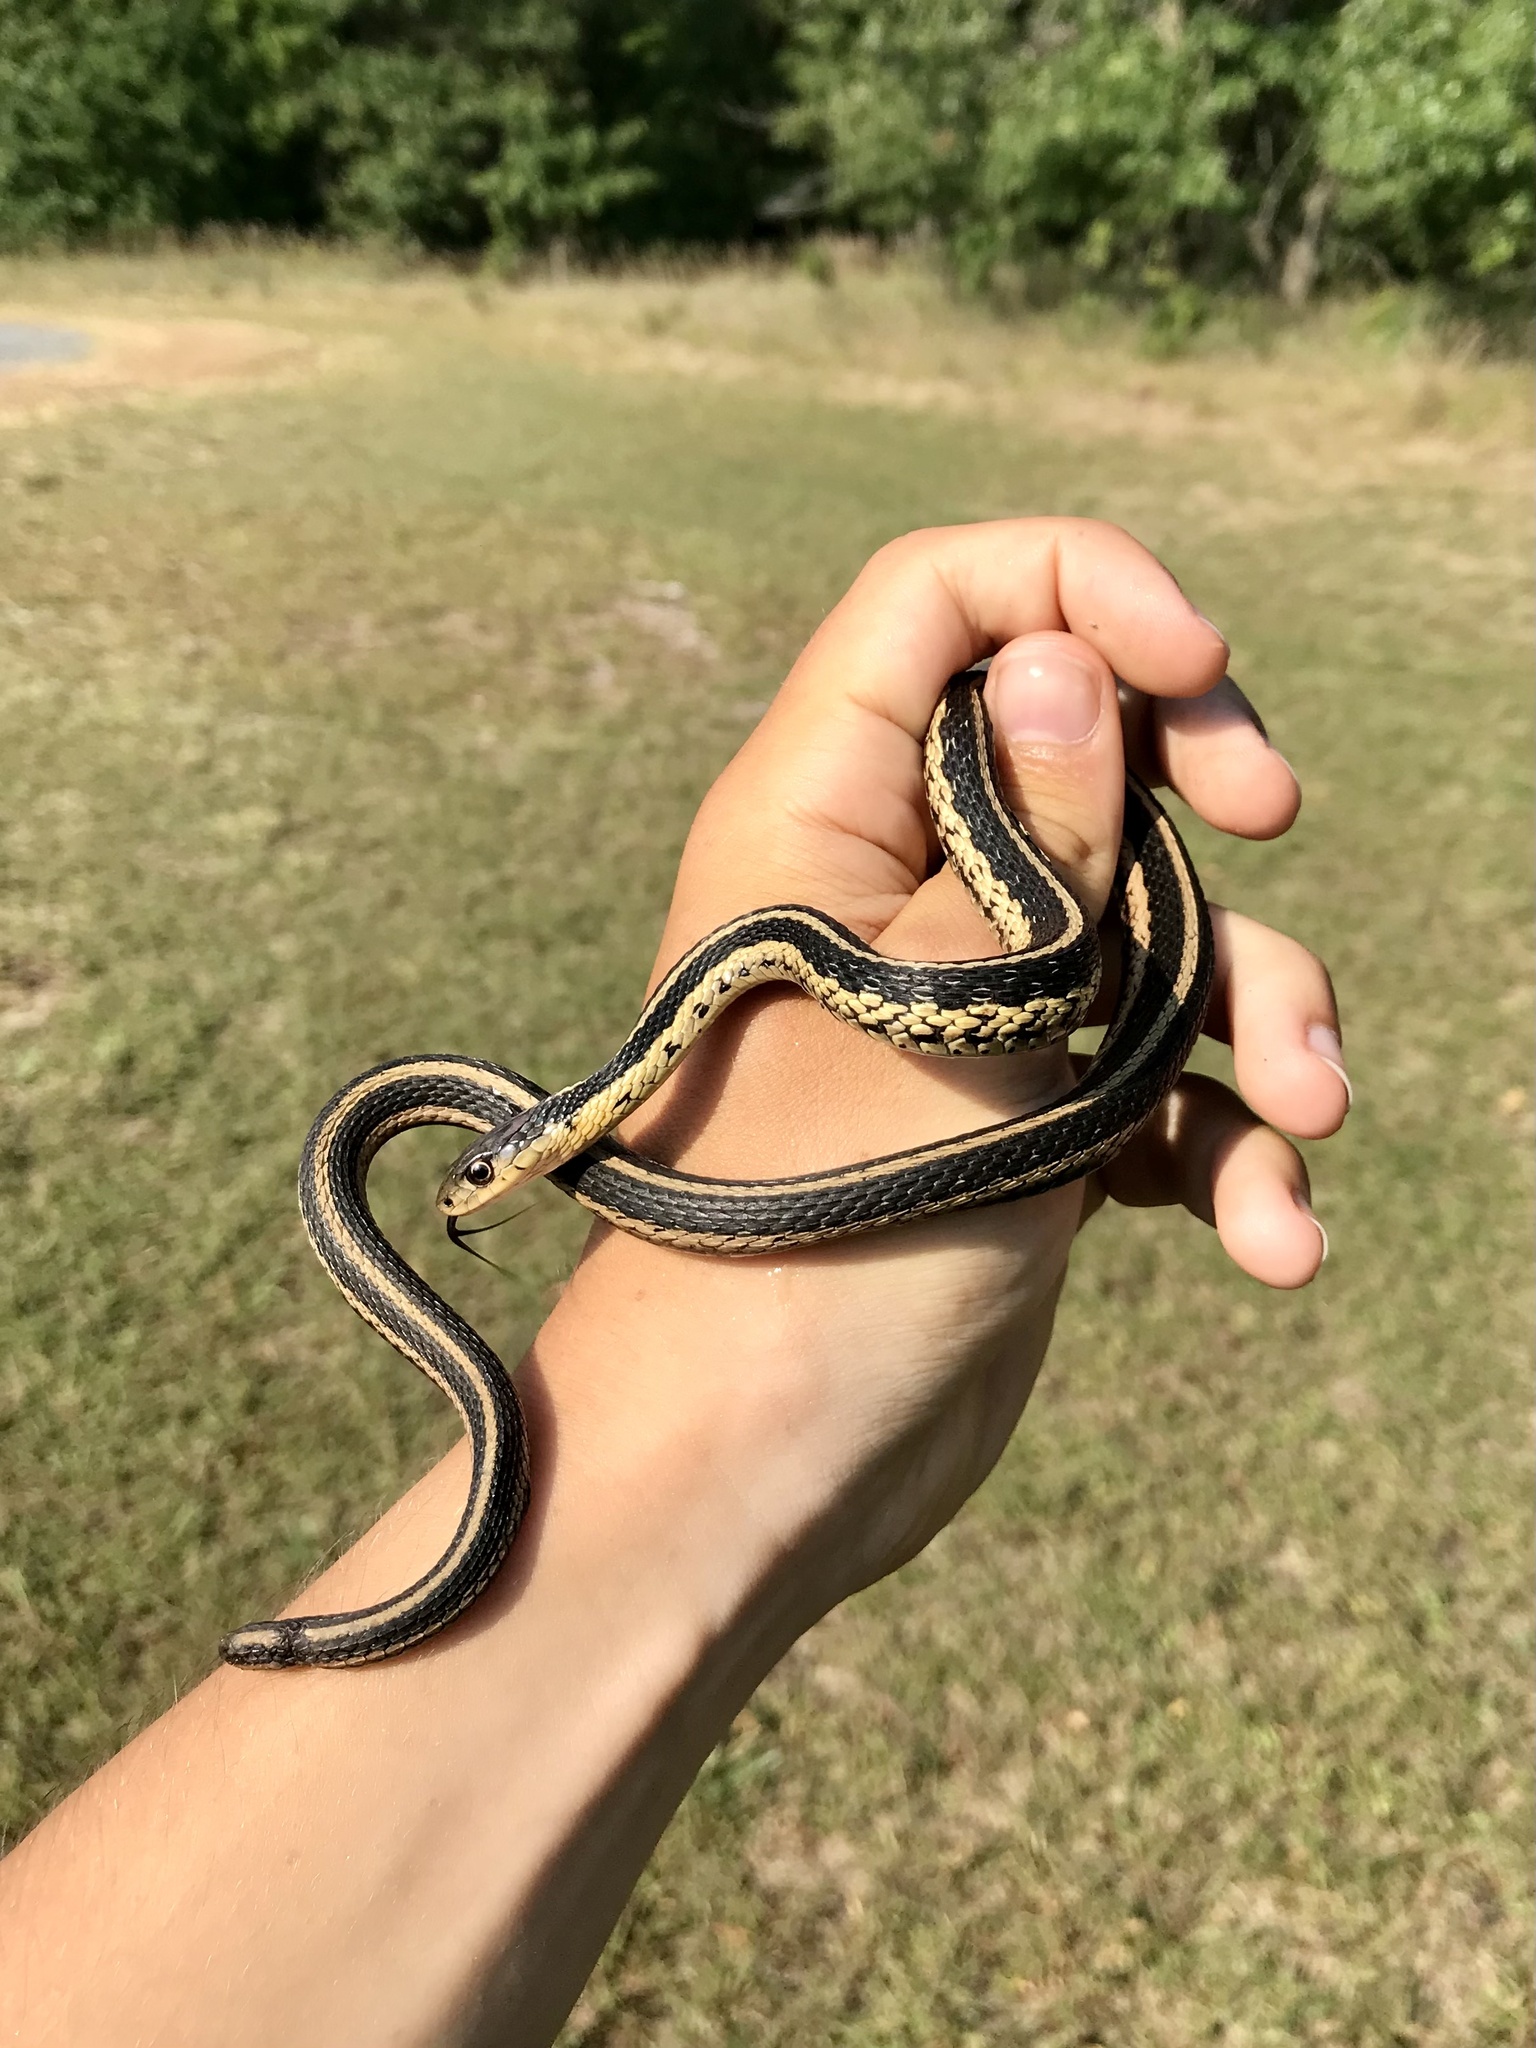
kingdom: Animalia
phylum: Chordata
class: Squamata
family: Colubridae
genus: Thamnophis
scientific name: Thamnophis sirtalis
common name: Common garter snake
